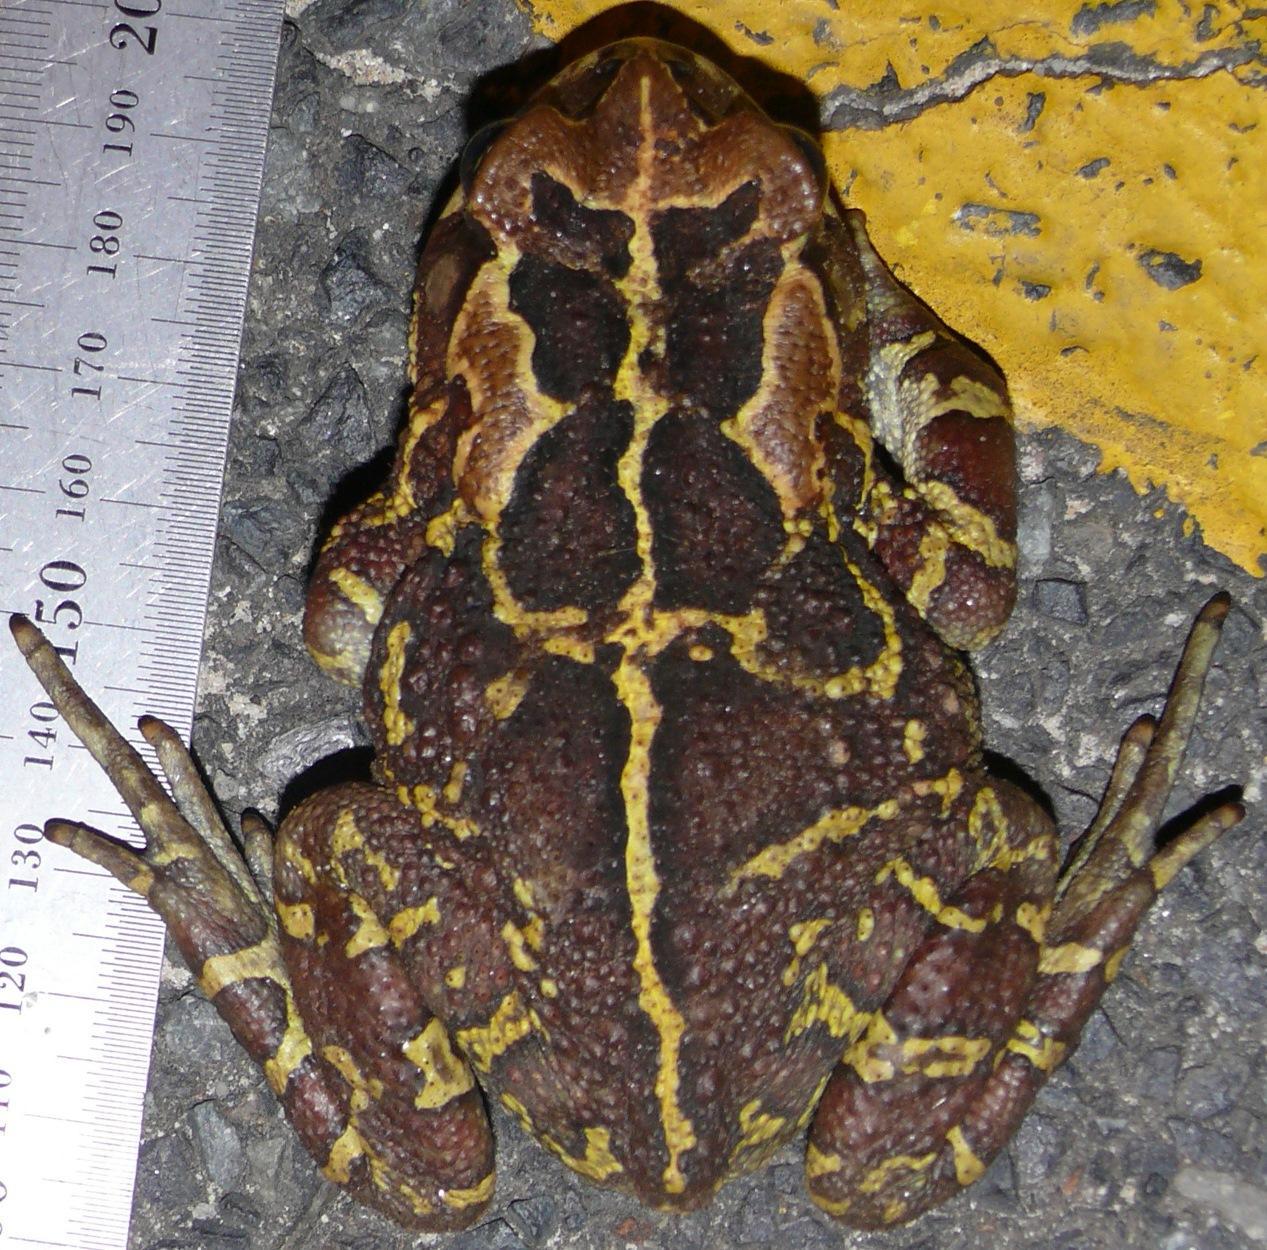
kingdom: Animalia
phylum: Chordata
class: Amphibia
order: Anura
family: Bufonidae
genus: Sclerophrys
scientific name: Sclerophrys pantherina
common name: Panther toad
